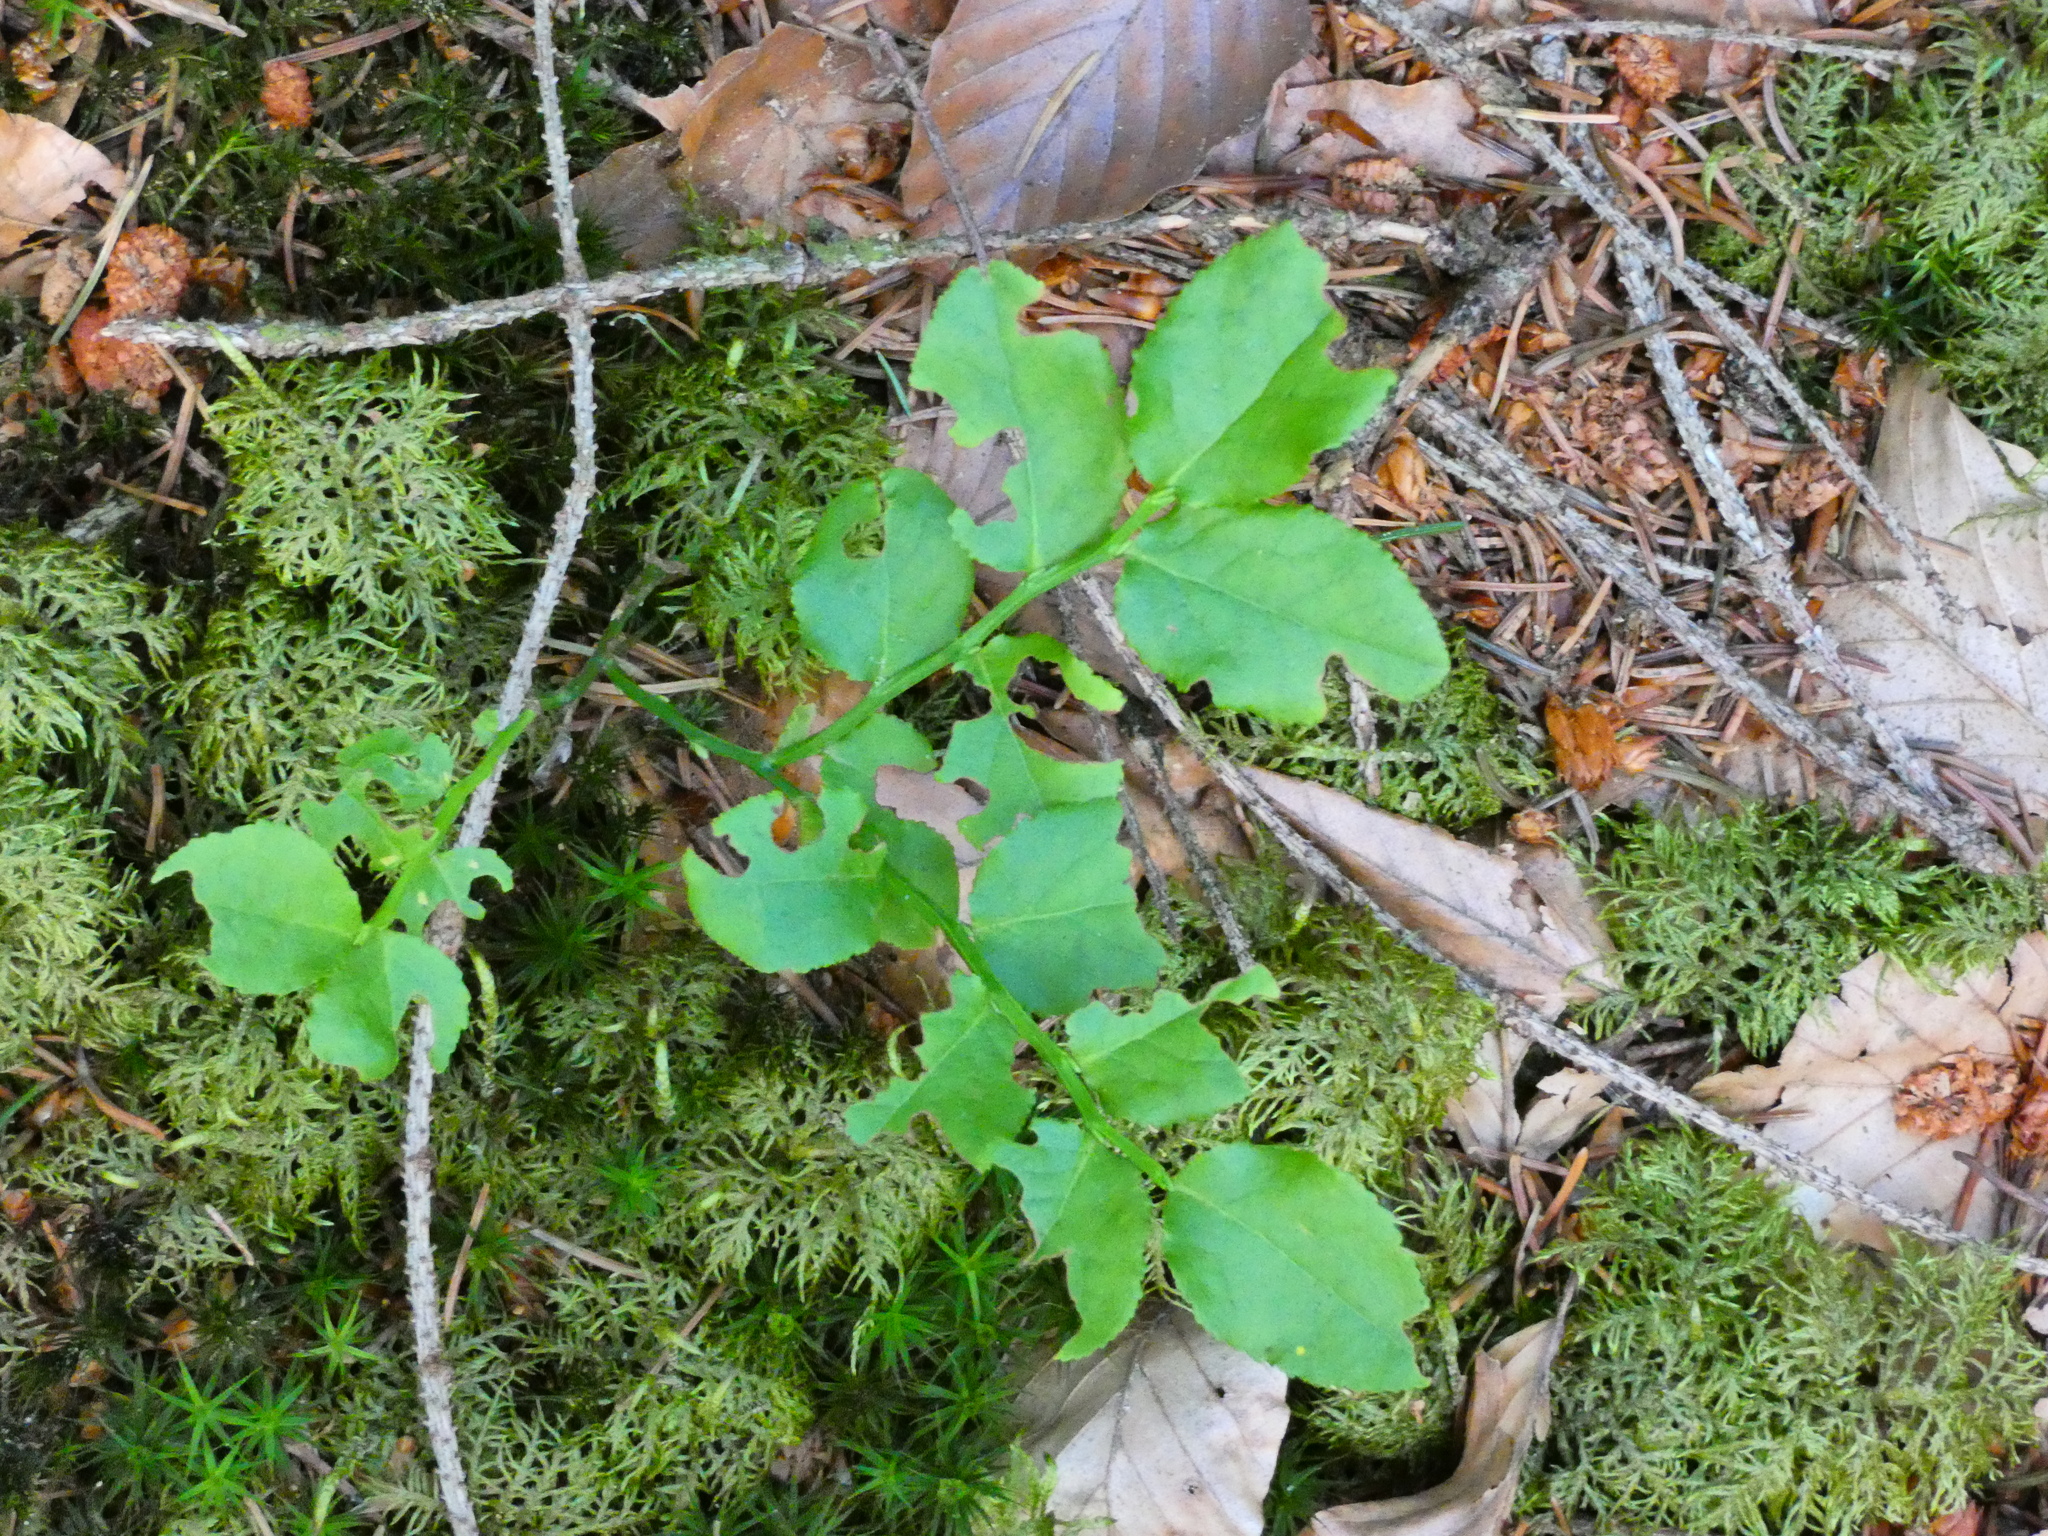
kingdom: Plantae
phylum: Tracheophyta
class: Magnoliopsida
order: Ericales
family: Ericaceae
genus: Vaccinium
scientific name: Vaccinium myrtillus
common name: Bilberry
